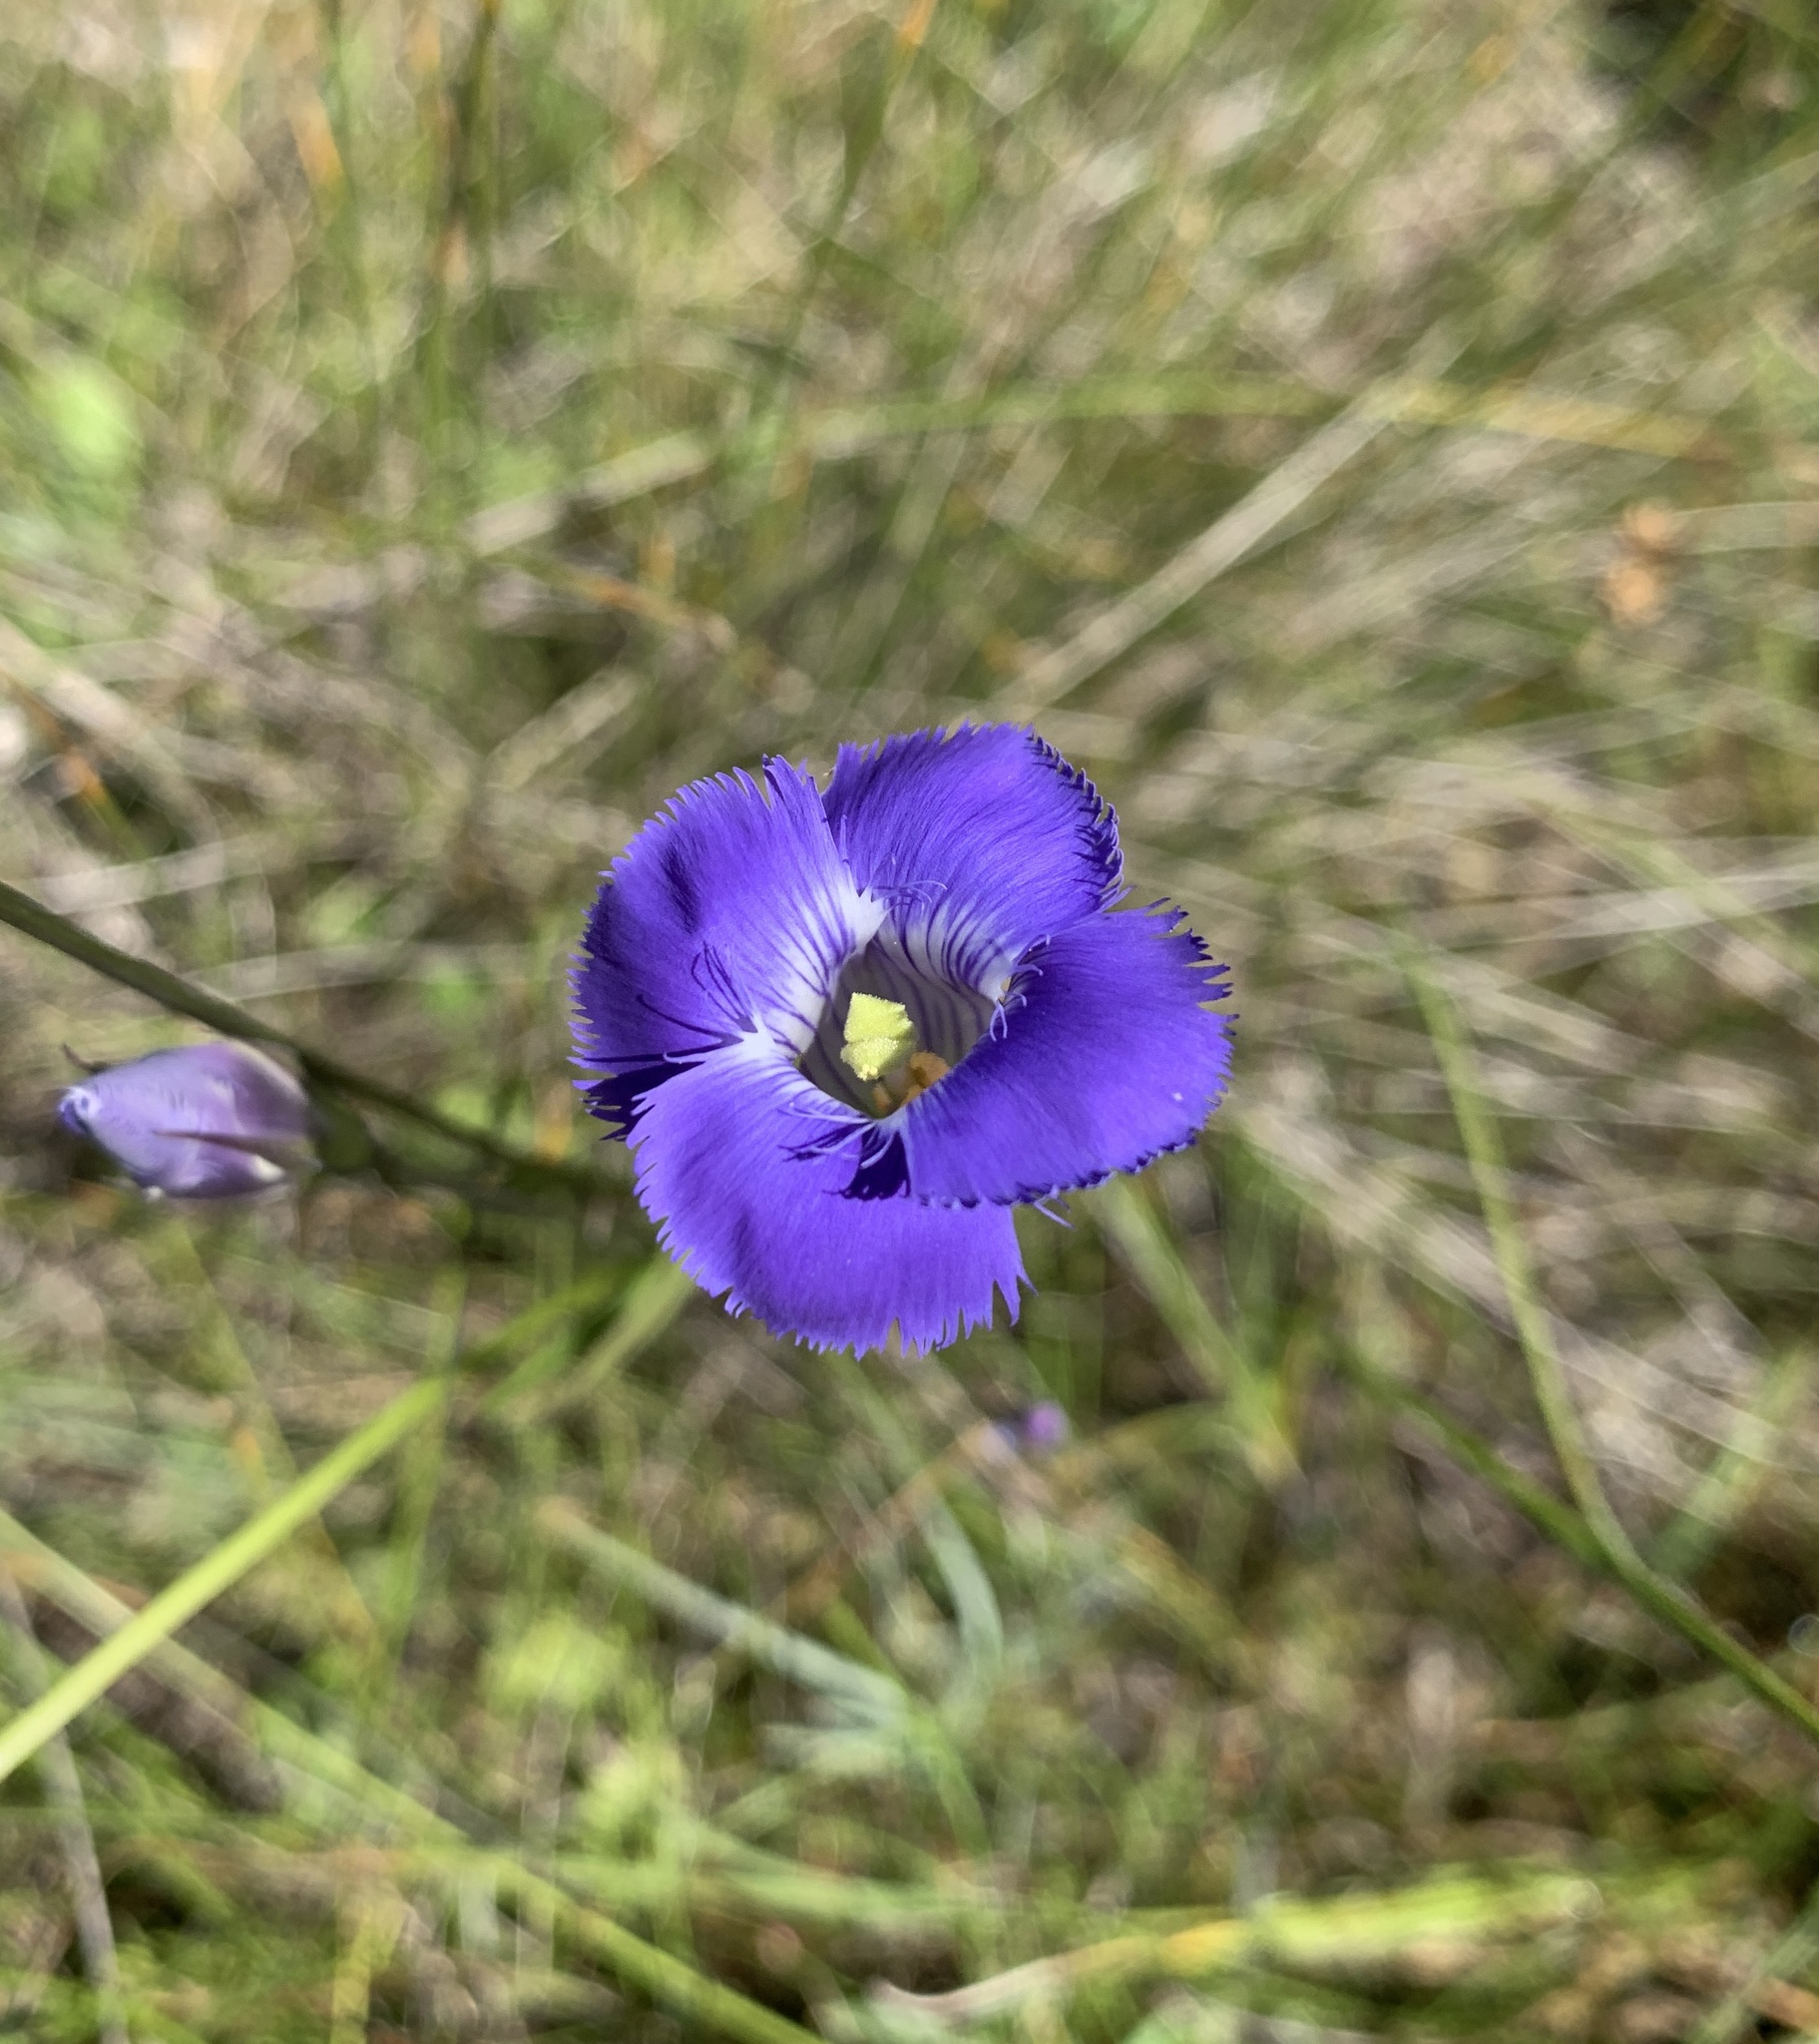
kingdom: Plantae
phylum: Tracheophyta
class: Magnoliopsida
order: Gentianales
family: Gentianaceae
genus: Gentianopsis
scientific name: Gentianopsis virgata
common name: Lesser fringed-gentian
